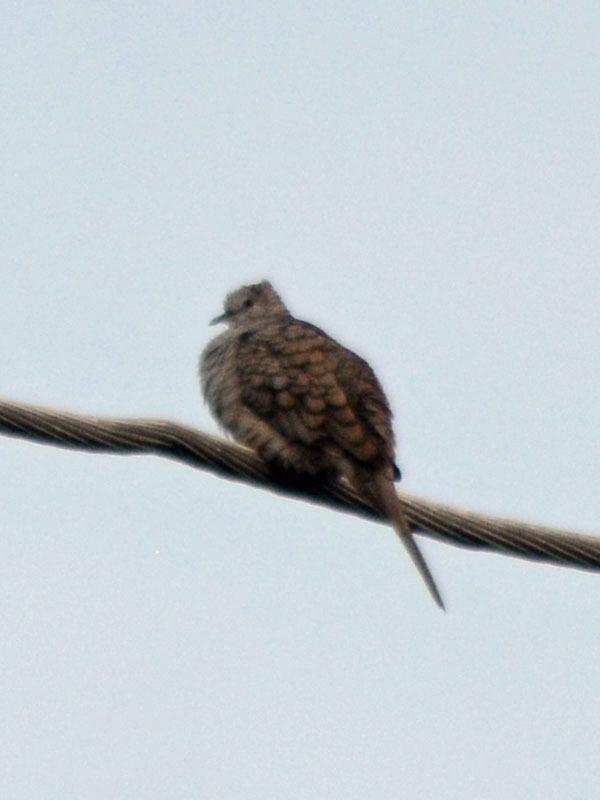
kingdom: Animalia
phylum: Chordata
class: Aves
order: Columbiformes
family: Columbidae
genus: Columbina
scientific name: Columbina inca
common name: Inca dove
